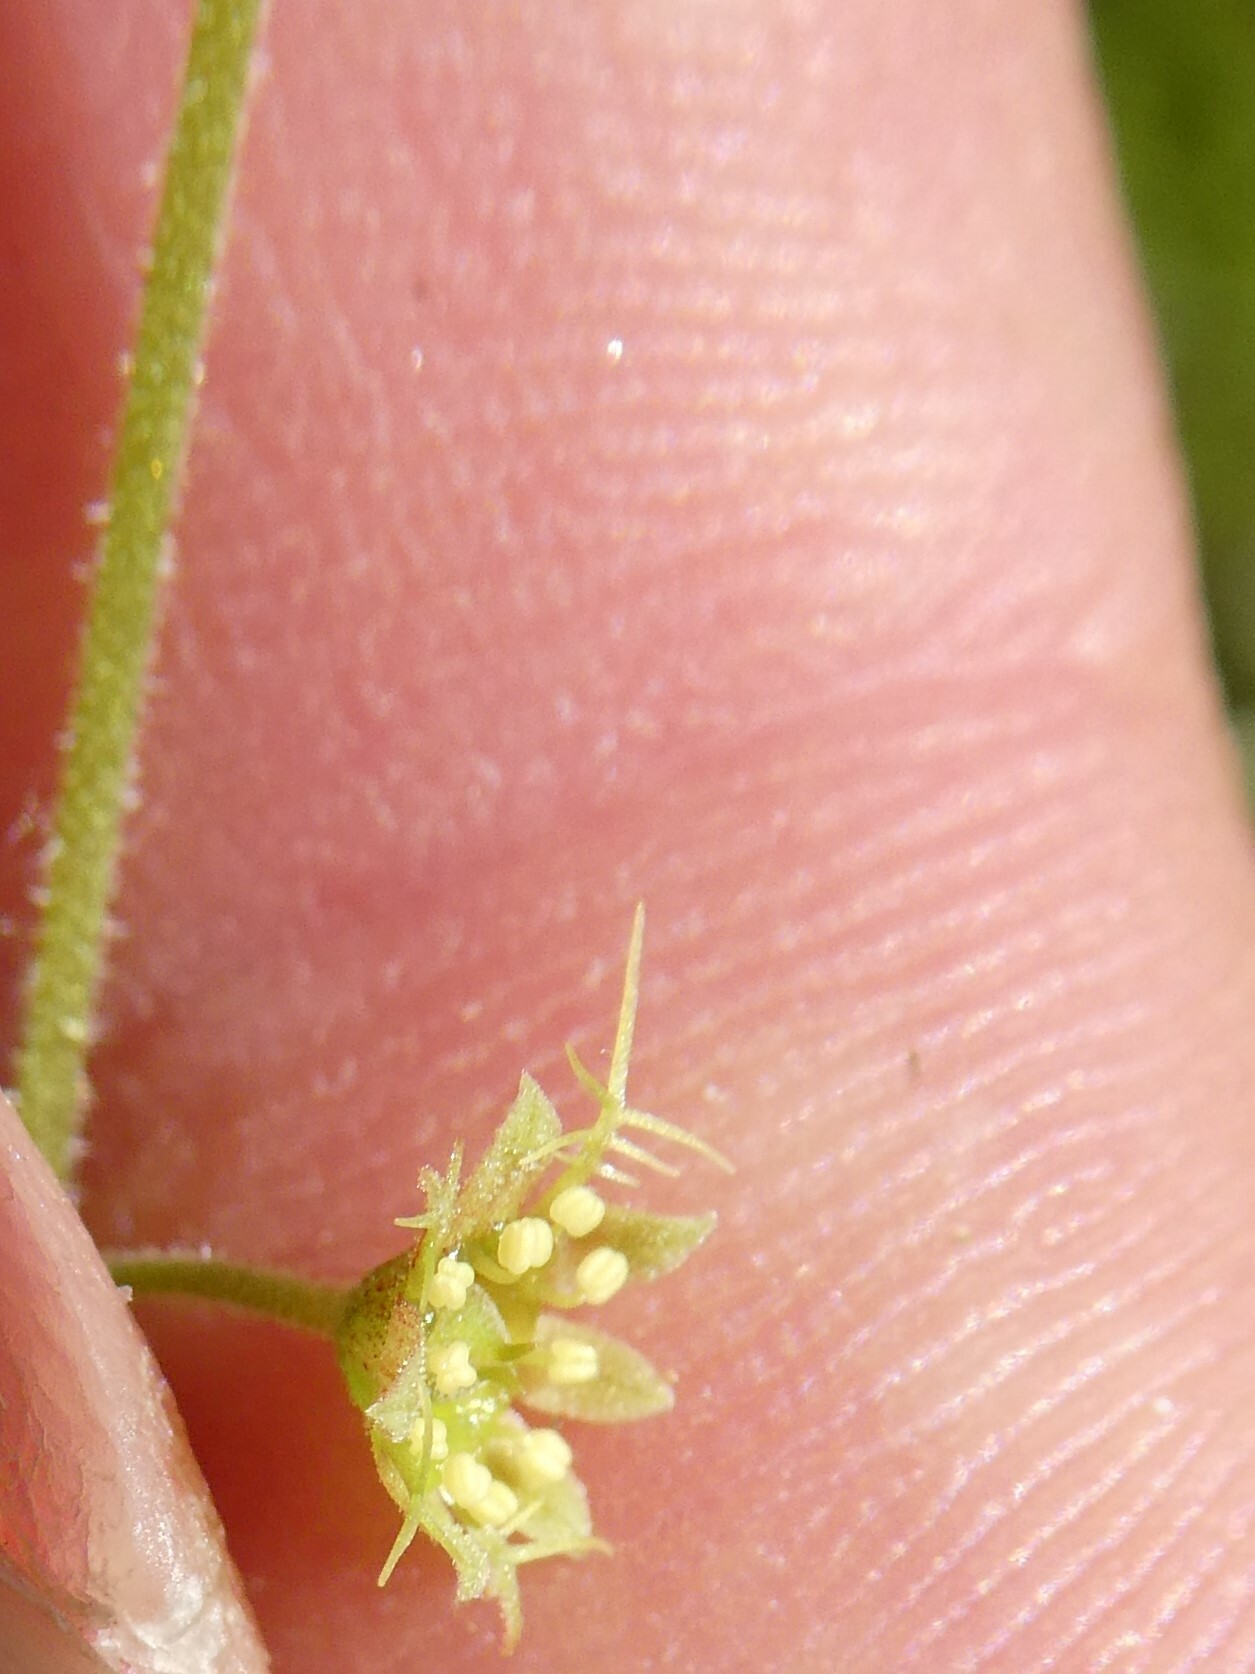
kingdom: Plantae
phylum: Tracheophyta
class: Magnoliopsida
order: Saxifragales
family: Saxifragaceae
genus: Mitella
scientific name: Mitella nuda
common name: Bare-stemmed bishop's-cap
